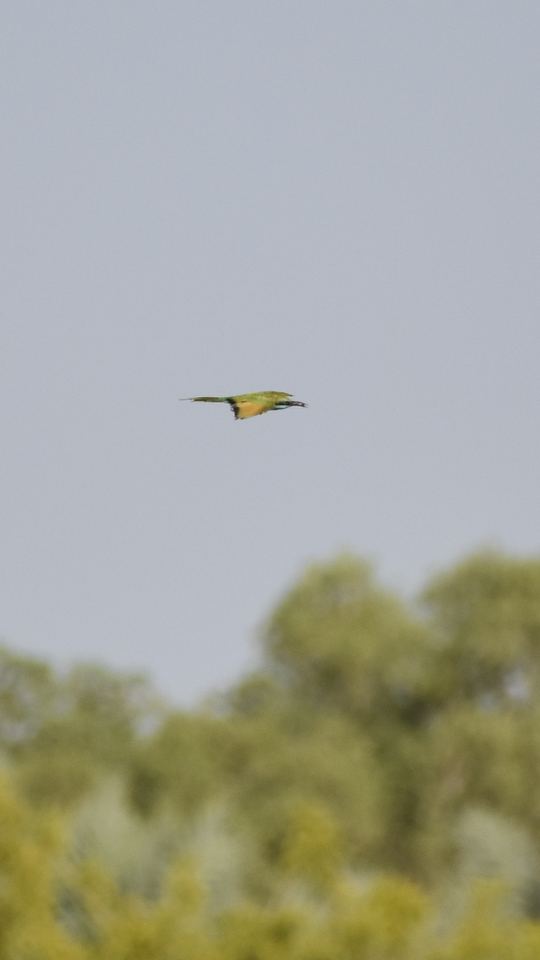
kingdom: Animalia
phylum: Chordata
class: Aves
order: Coraciiformes
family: Meropidae
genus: Merops
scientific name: Merops cyanophrys
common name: Arabian green bee-eater
